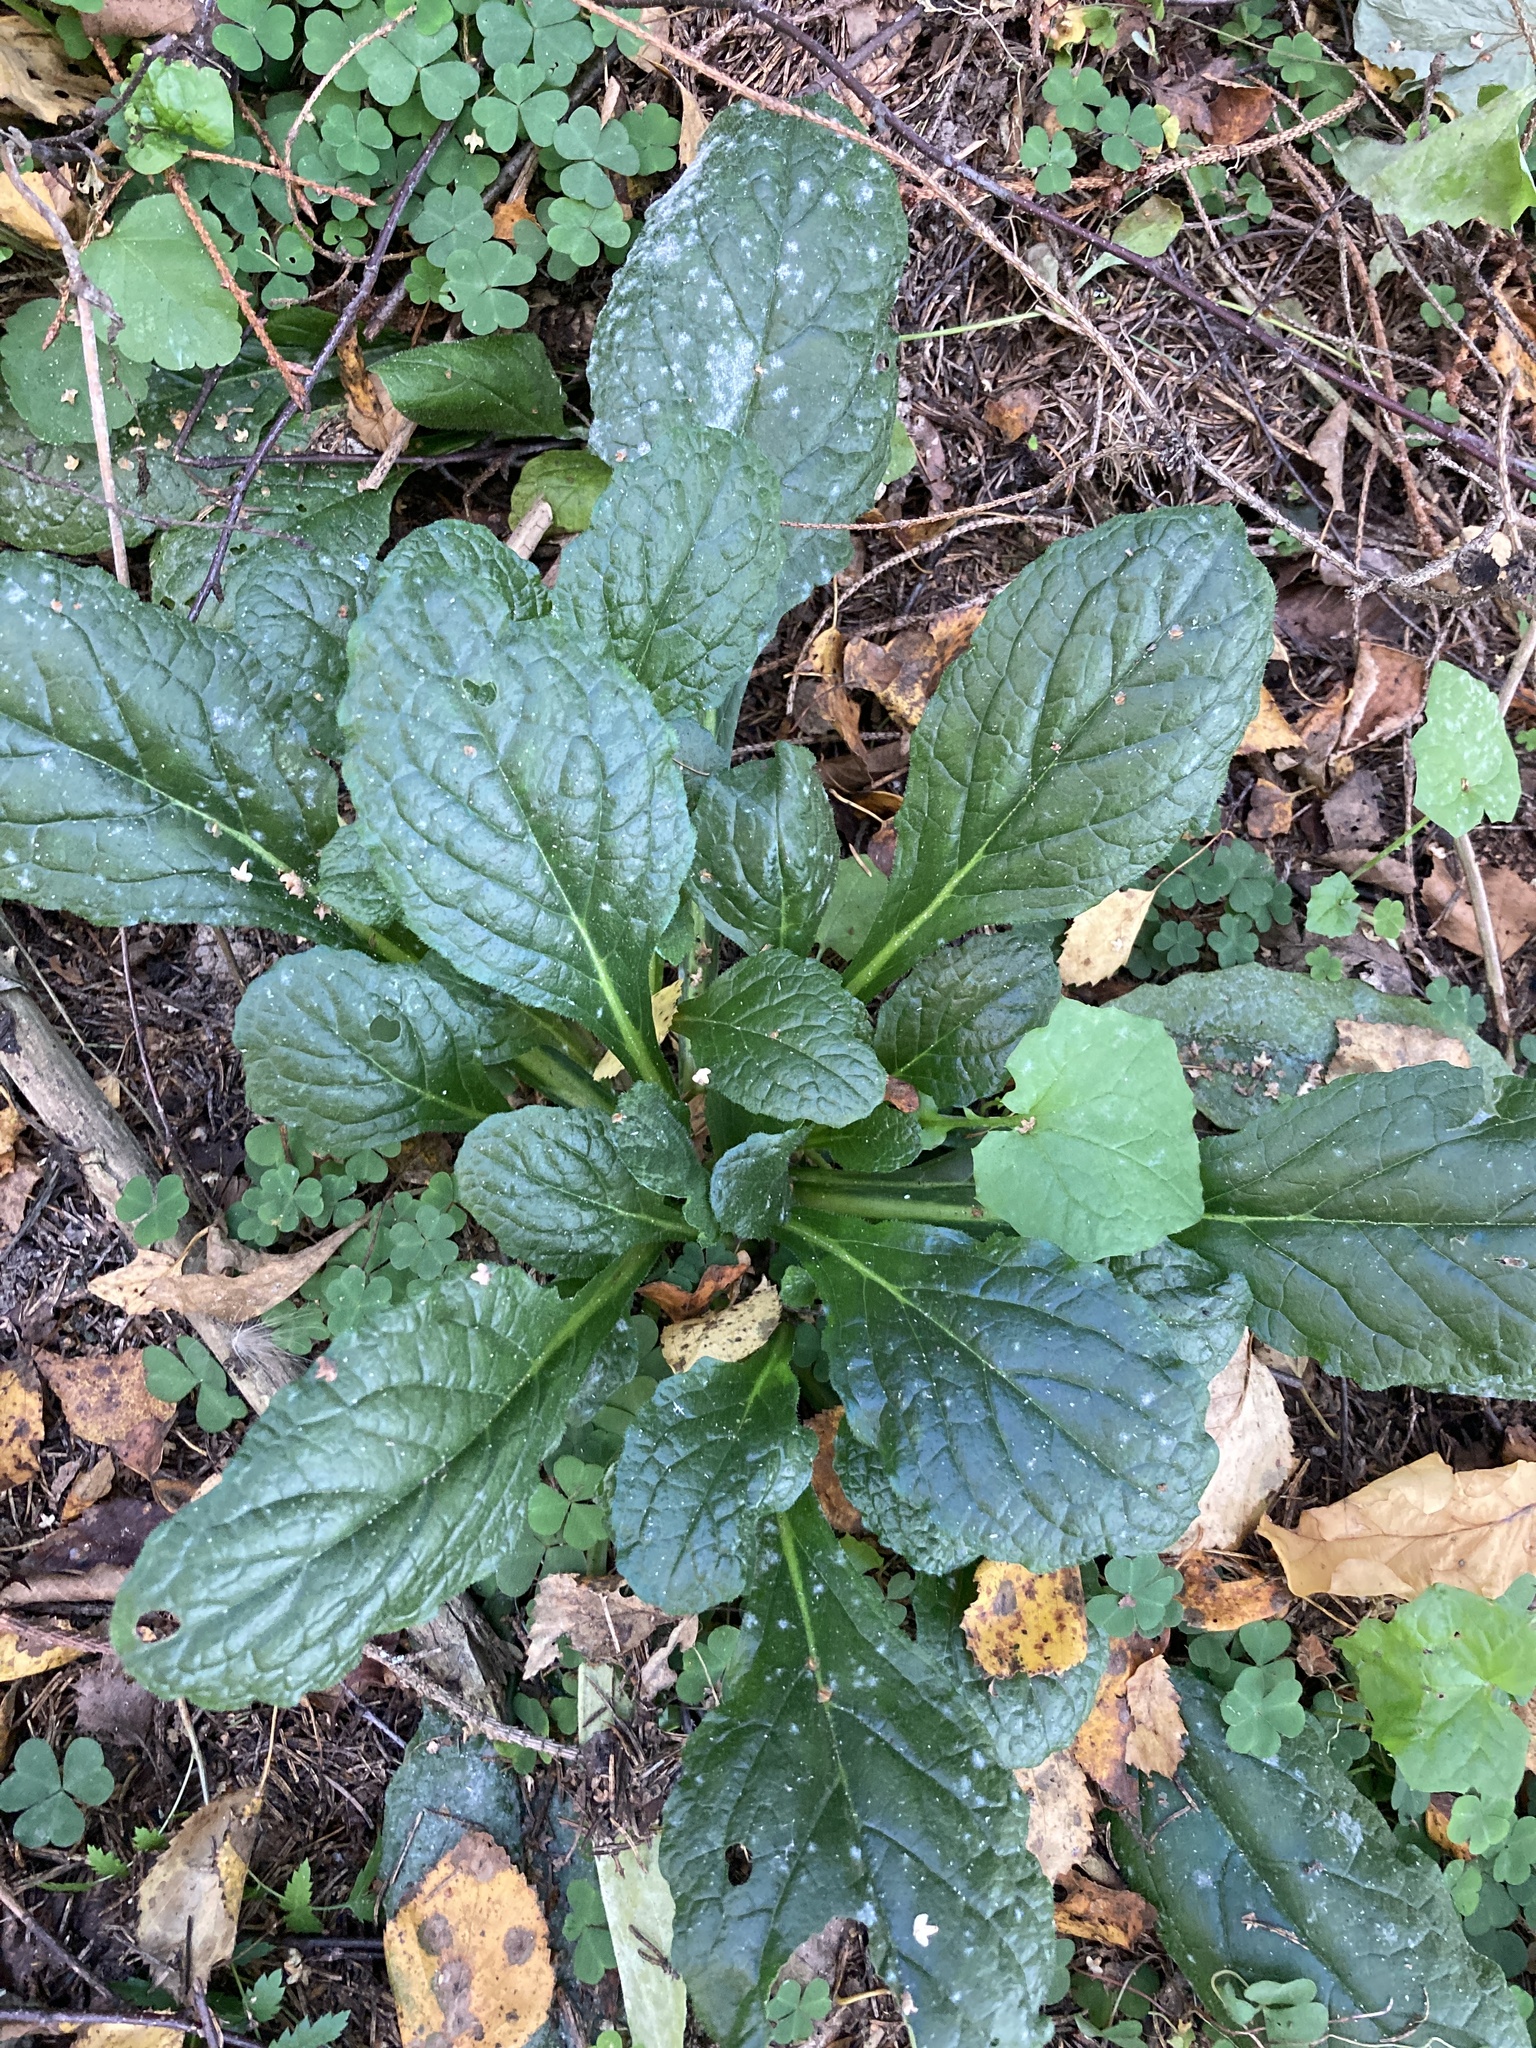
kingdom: Plantae
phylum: Tracheophyta
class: Magnoliopsida
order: Lamiales
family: Lamiaceae
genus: Ajuga
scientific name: Ajuga reptans
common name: Bugle
